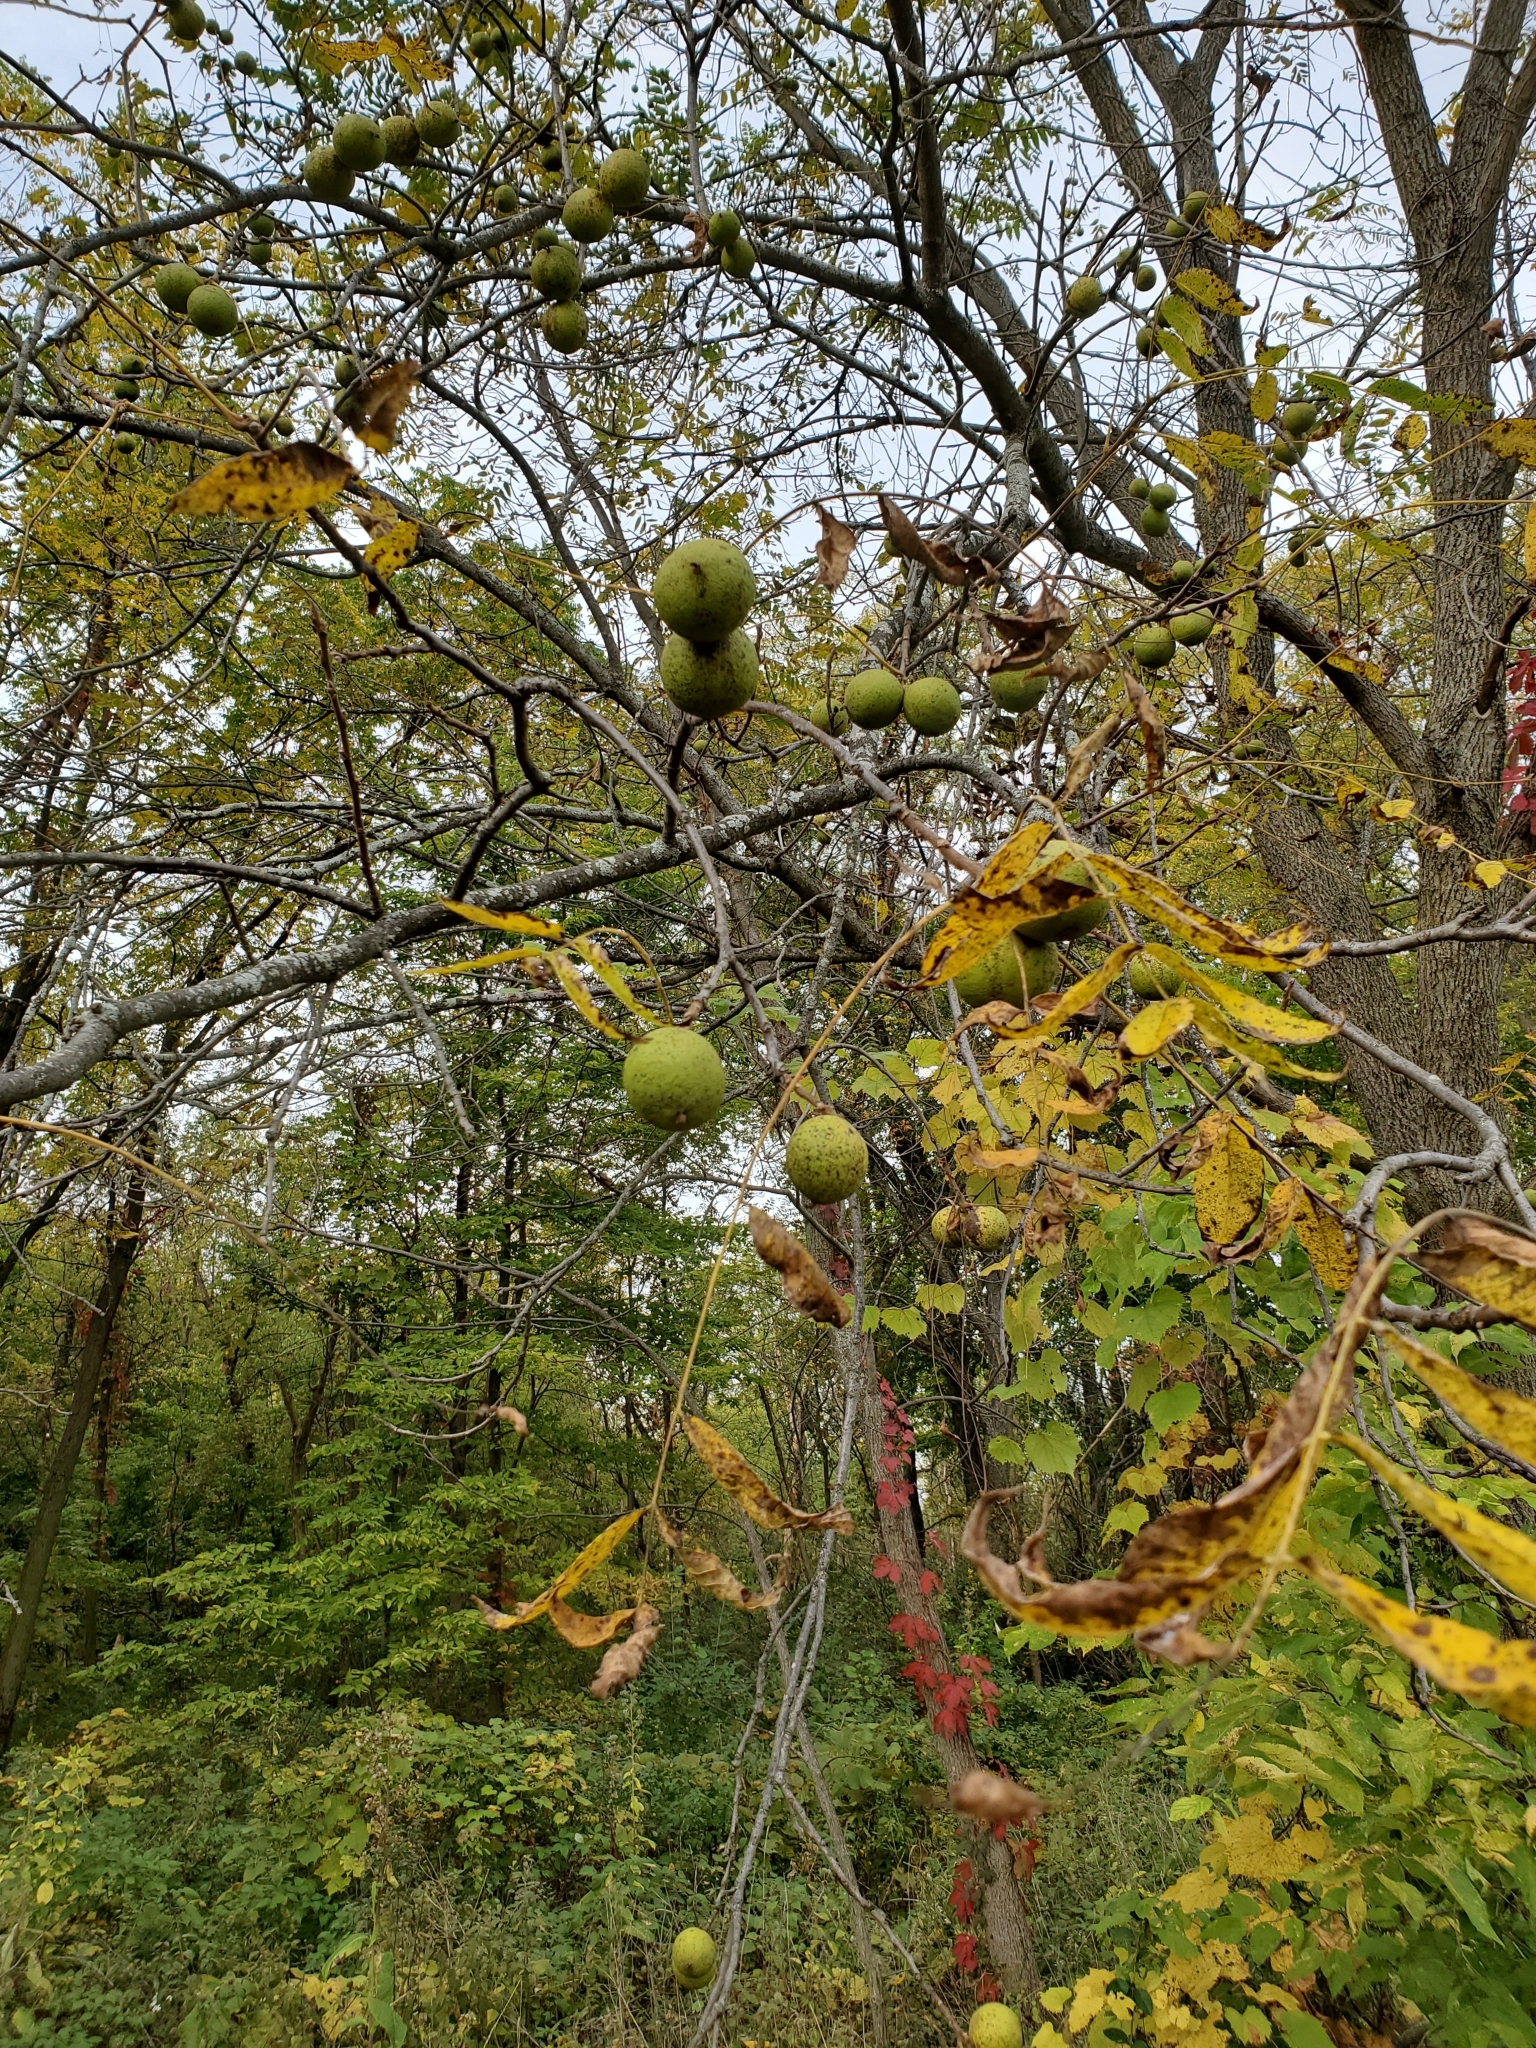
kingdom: Plantae
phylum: Tracheophyta
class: Magnoliopsida
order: Fagales
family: Juglandaceae
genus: Juglans
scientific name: Juglans nigra
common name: Black walnut
